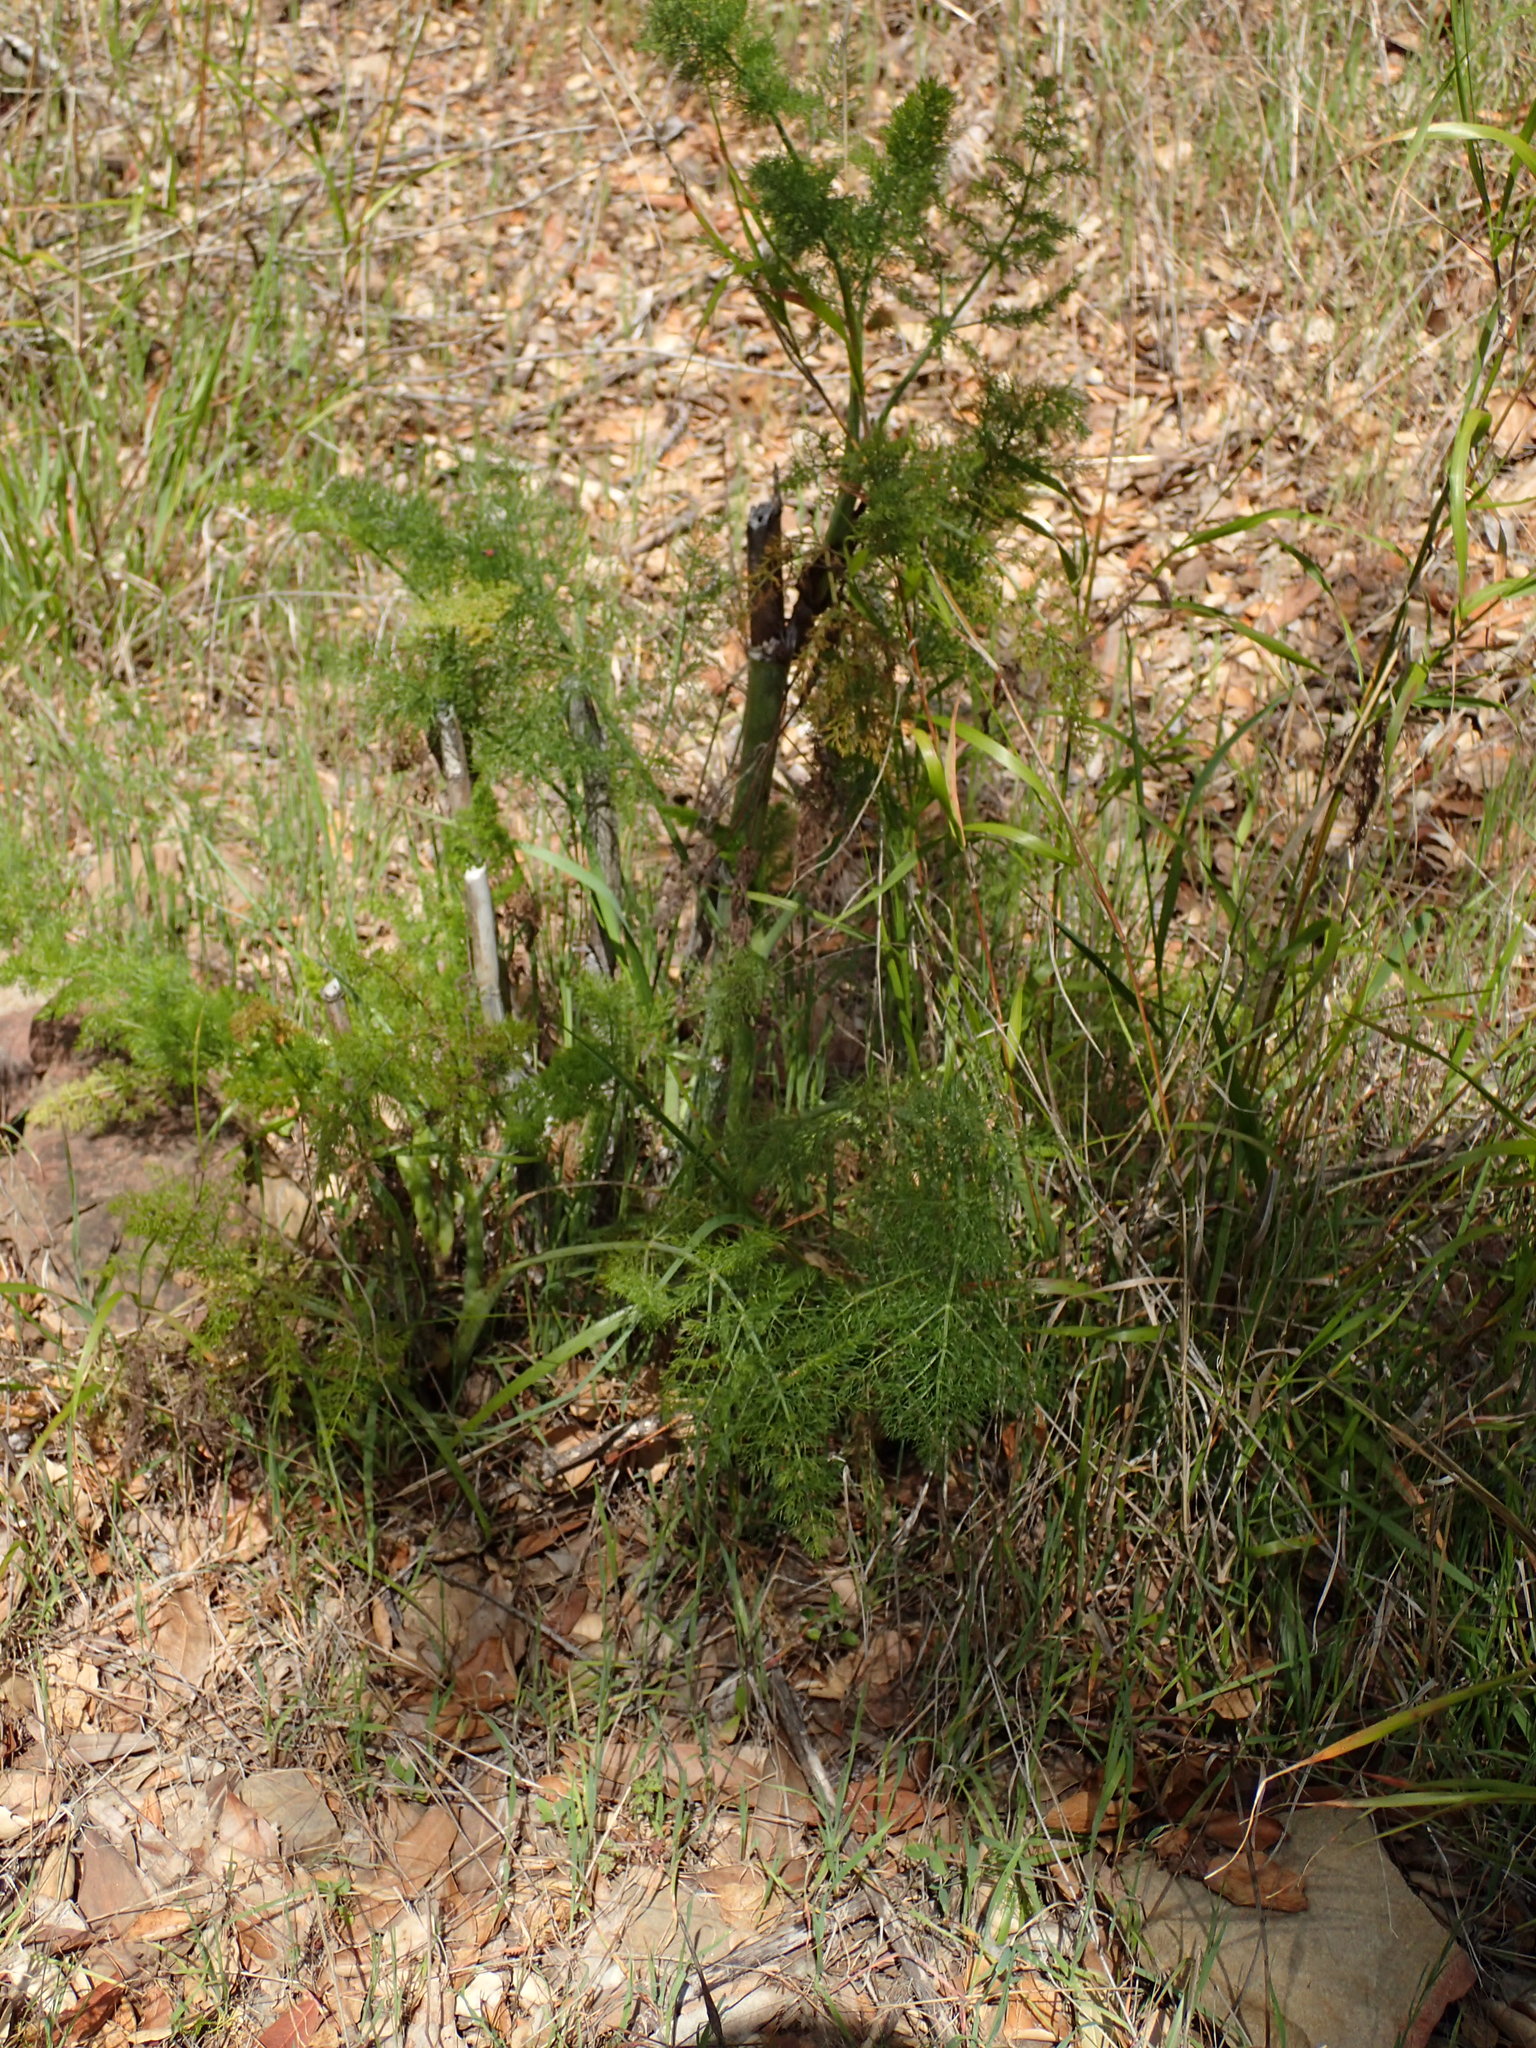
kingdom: Plantae
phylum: Tracheophyta
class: Magnoliopsida
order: Apiales
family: Apiaceae
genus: Foeniculum
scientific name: Foeniculum vulgare
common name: Fennel
